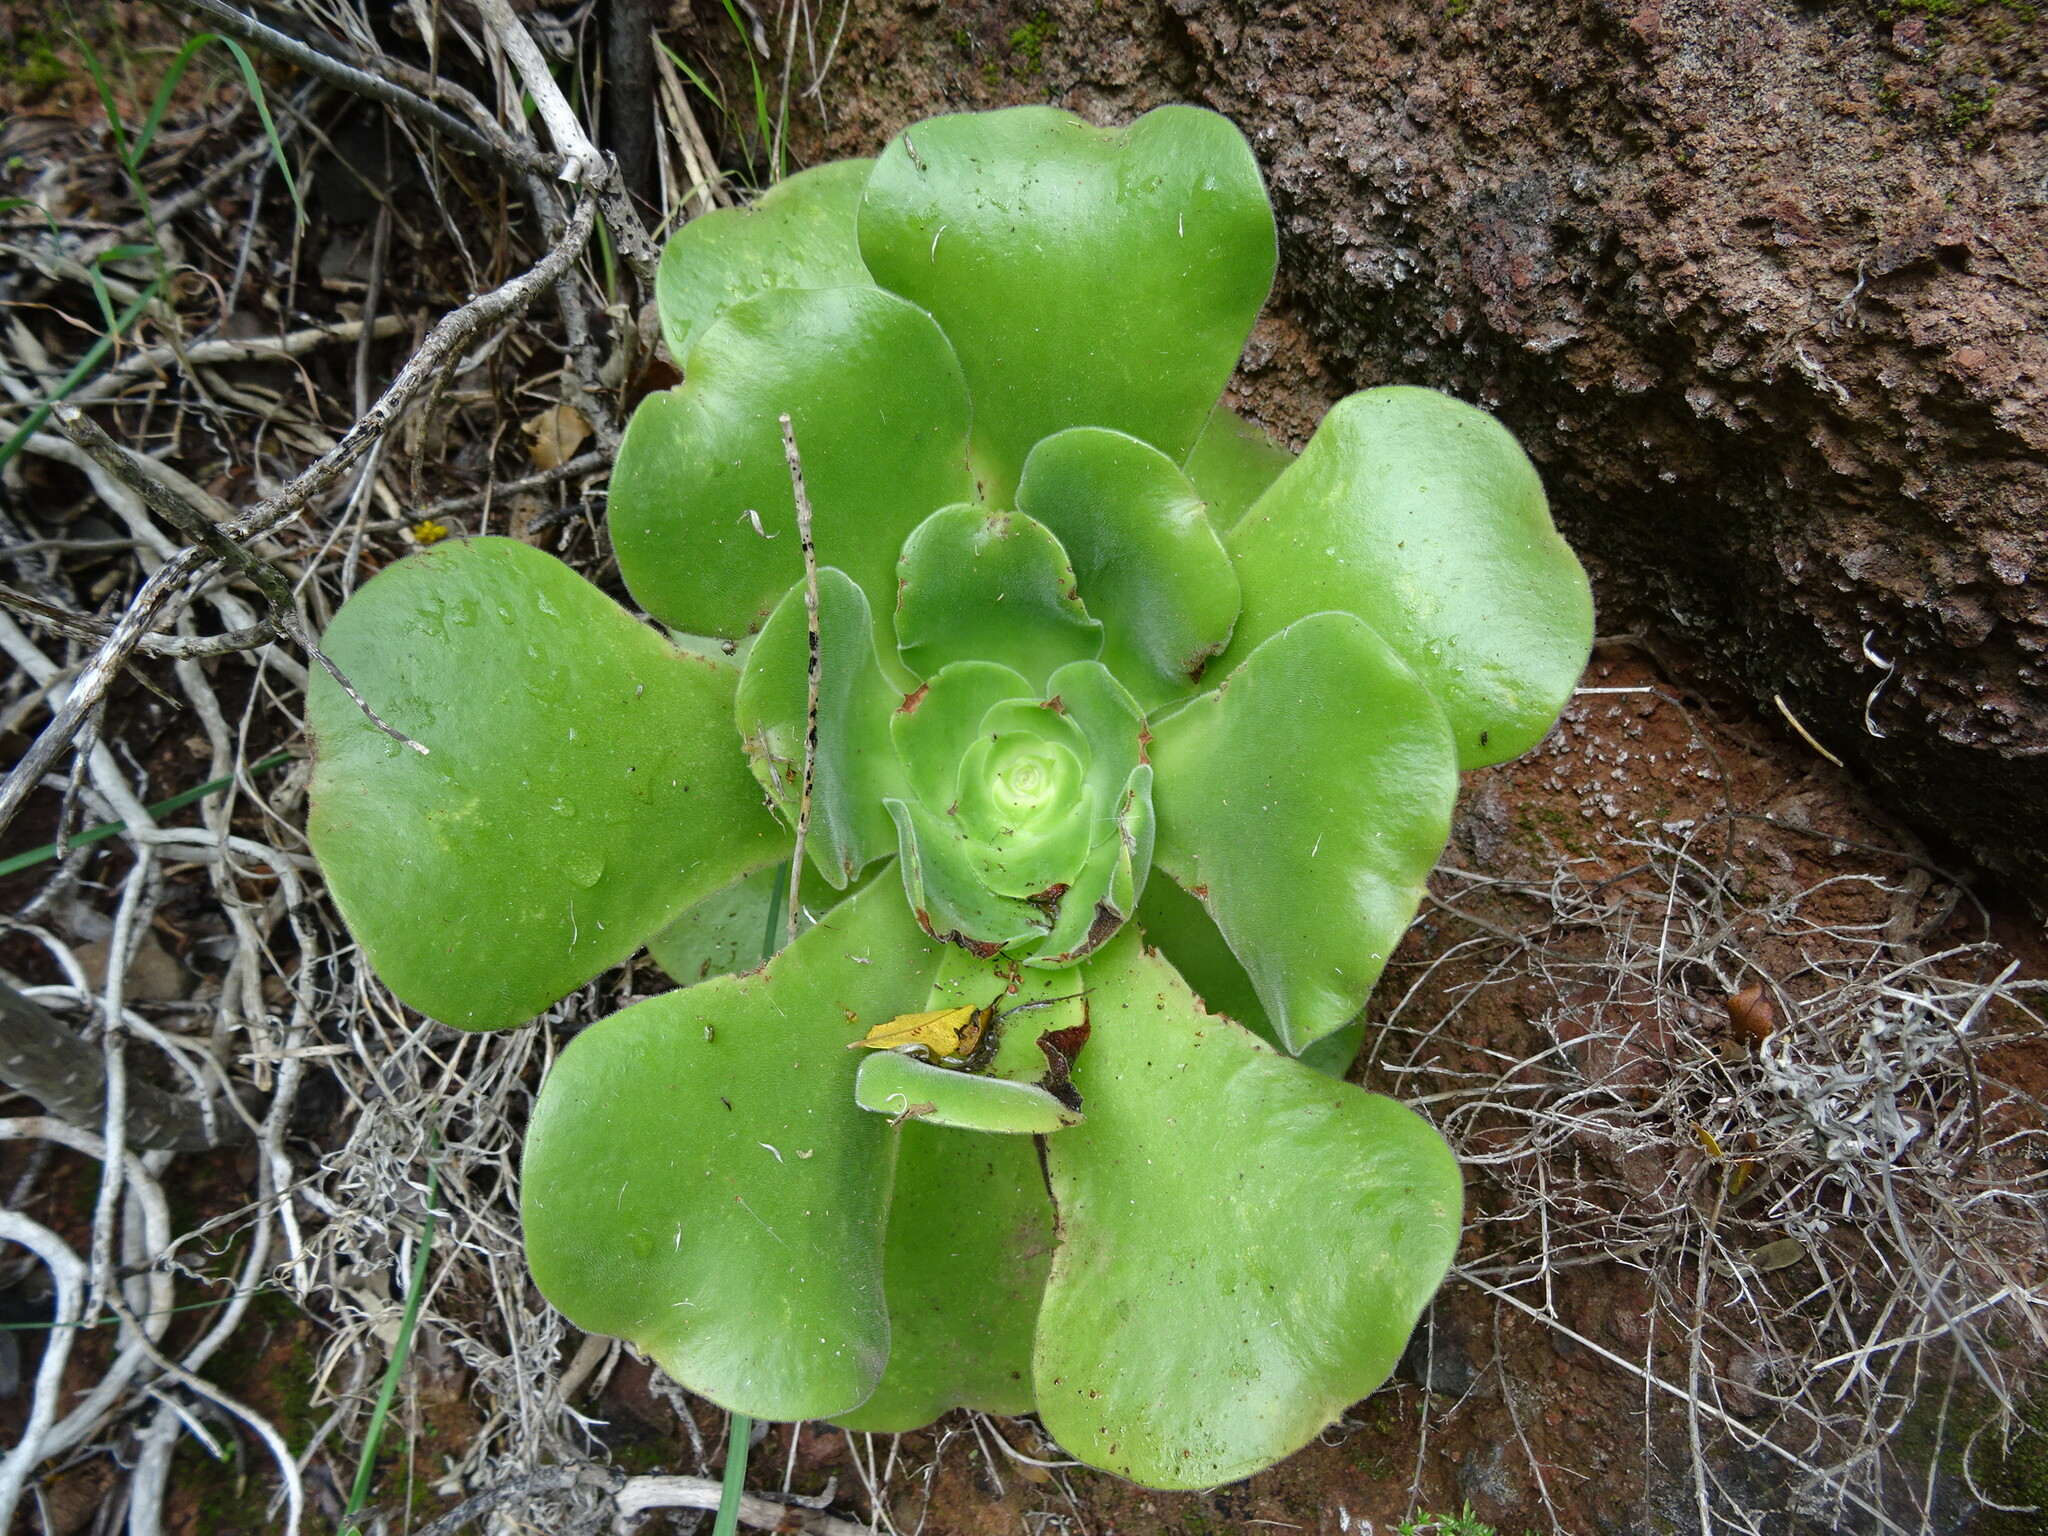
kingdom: Plantae
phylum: Tracheophyta
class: Magnoliopsida
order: Saxifragales
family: Crassulaceae
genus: Aeonium
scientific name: Aeonium canariense
